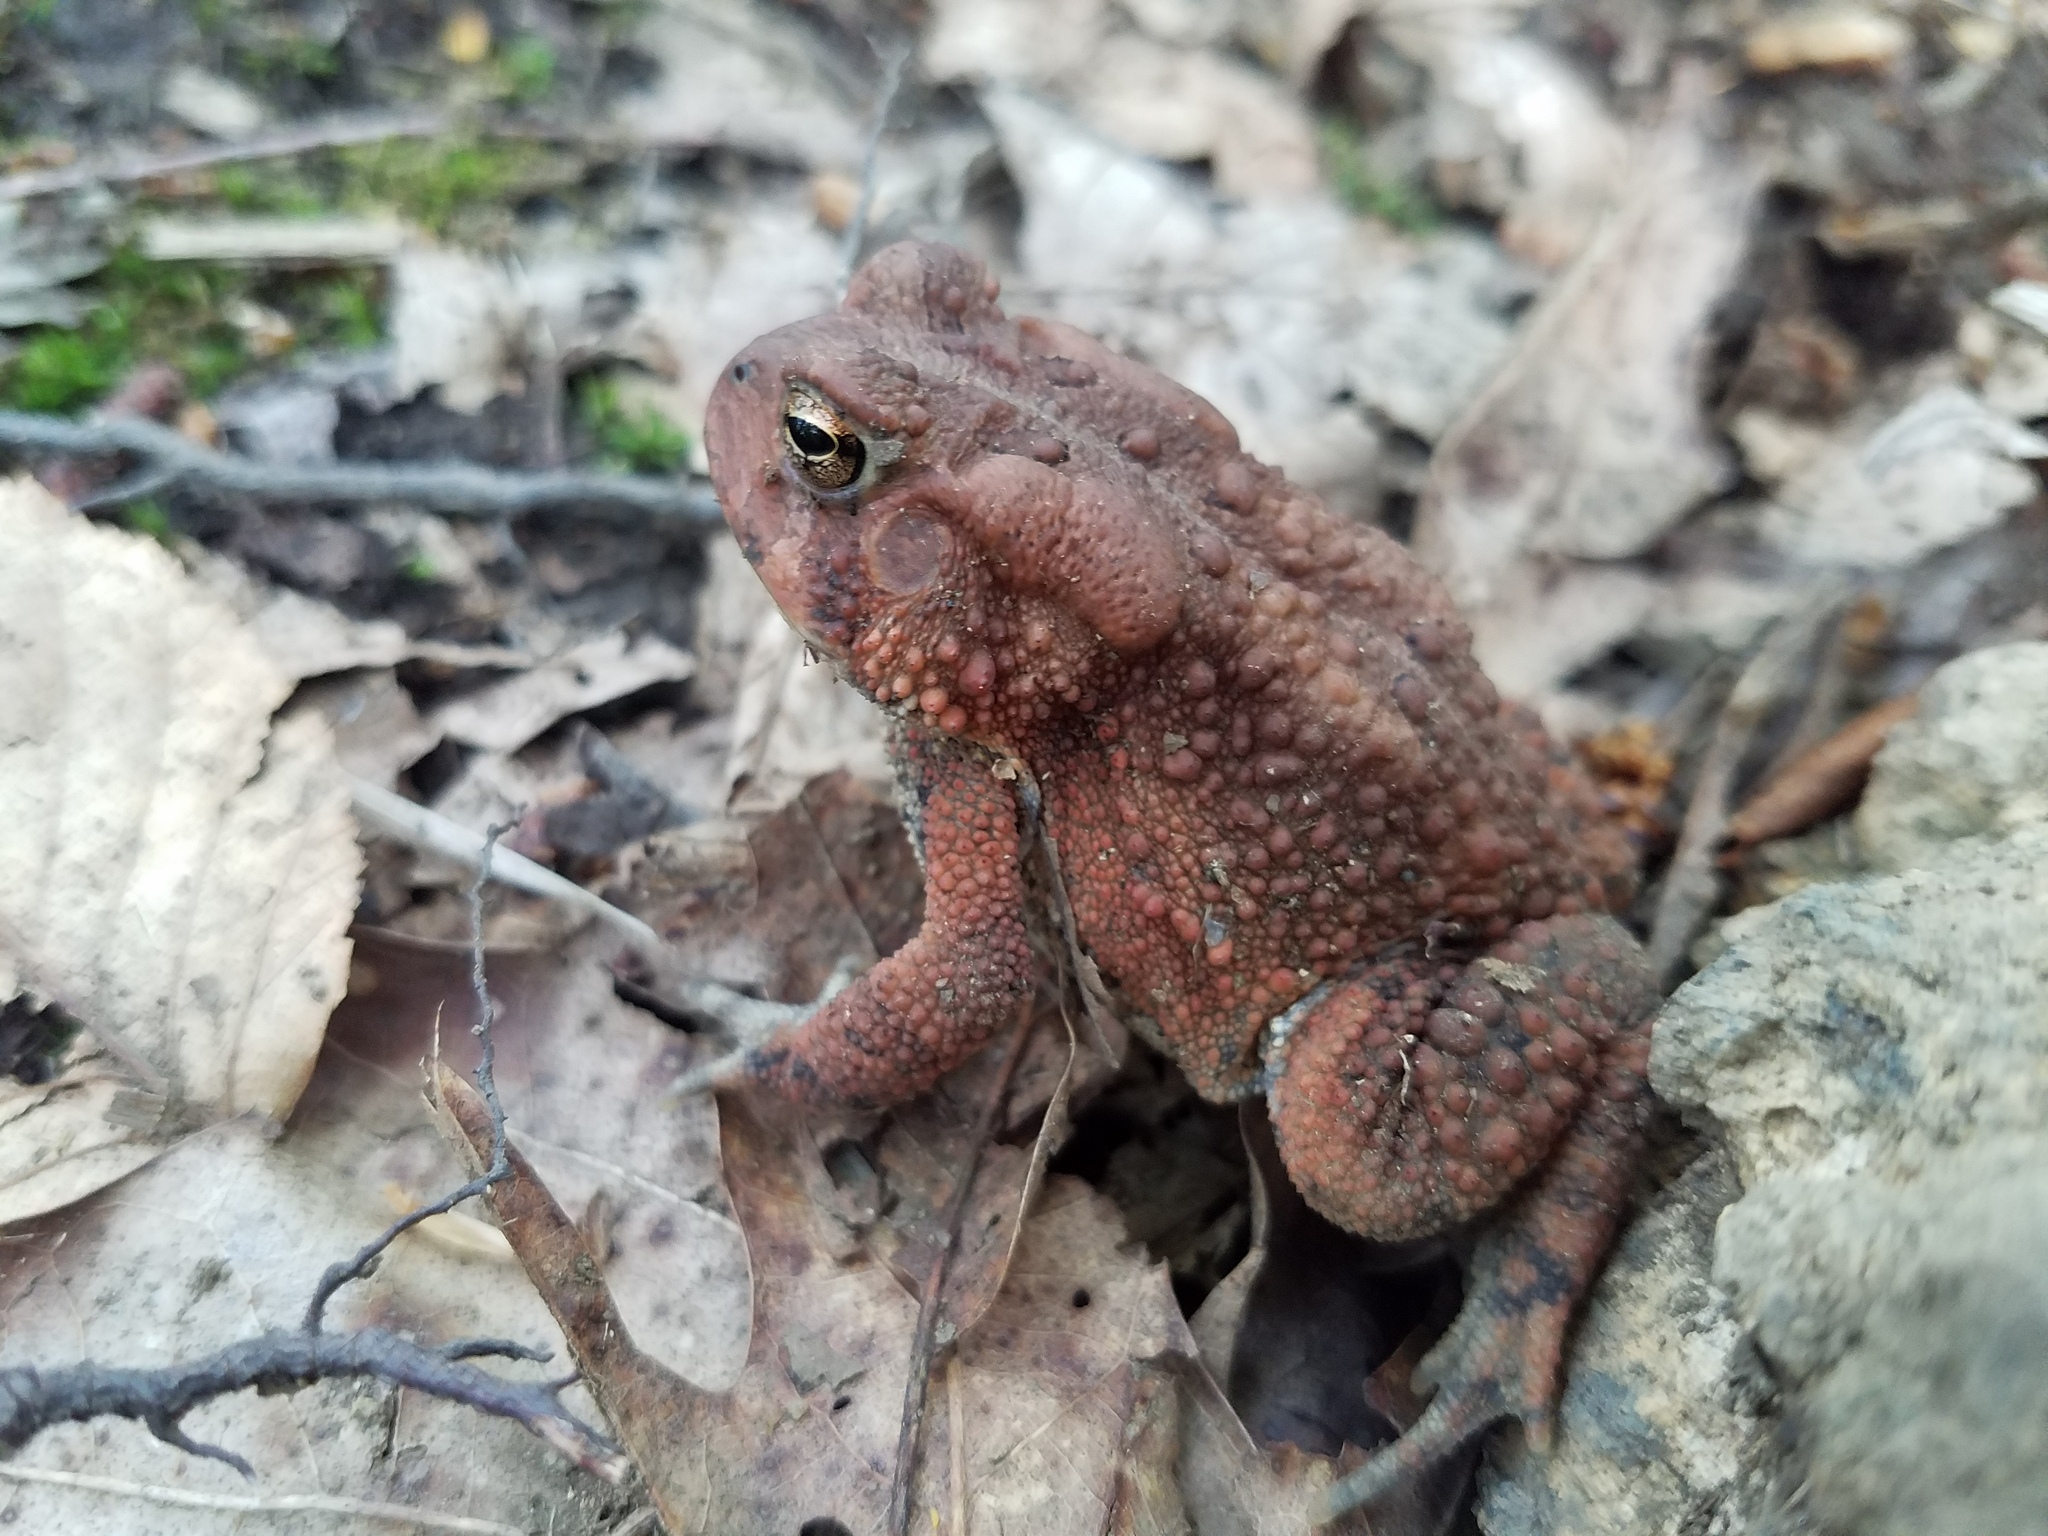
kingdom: Animalia
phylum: Chordata
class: Amphibia
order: Anura
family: Bufonidae
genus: Anaxyrus
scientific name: Anaxyrus americanus
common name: American toad
